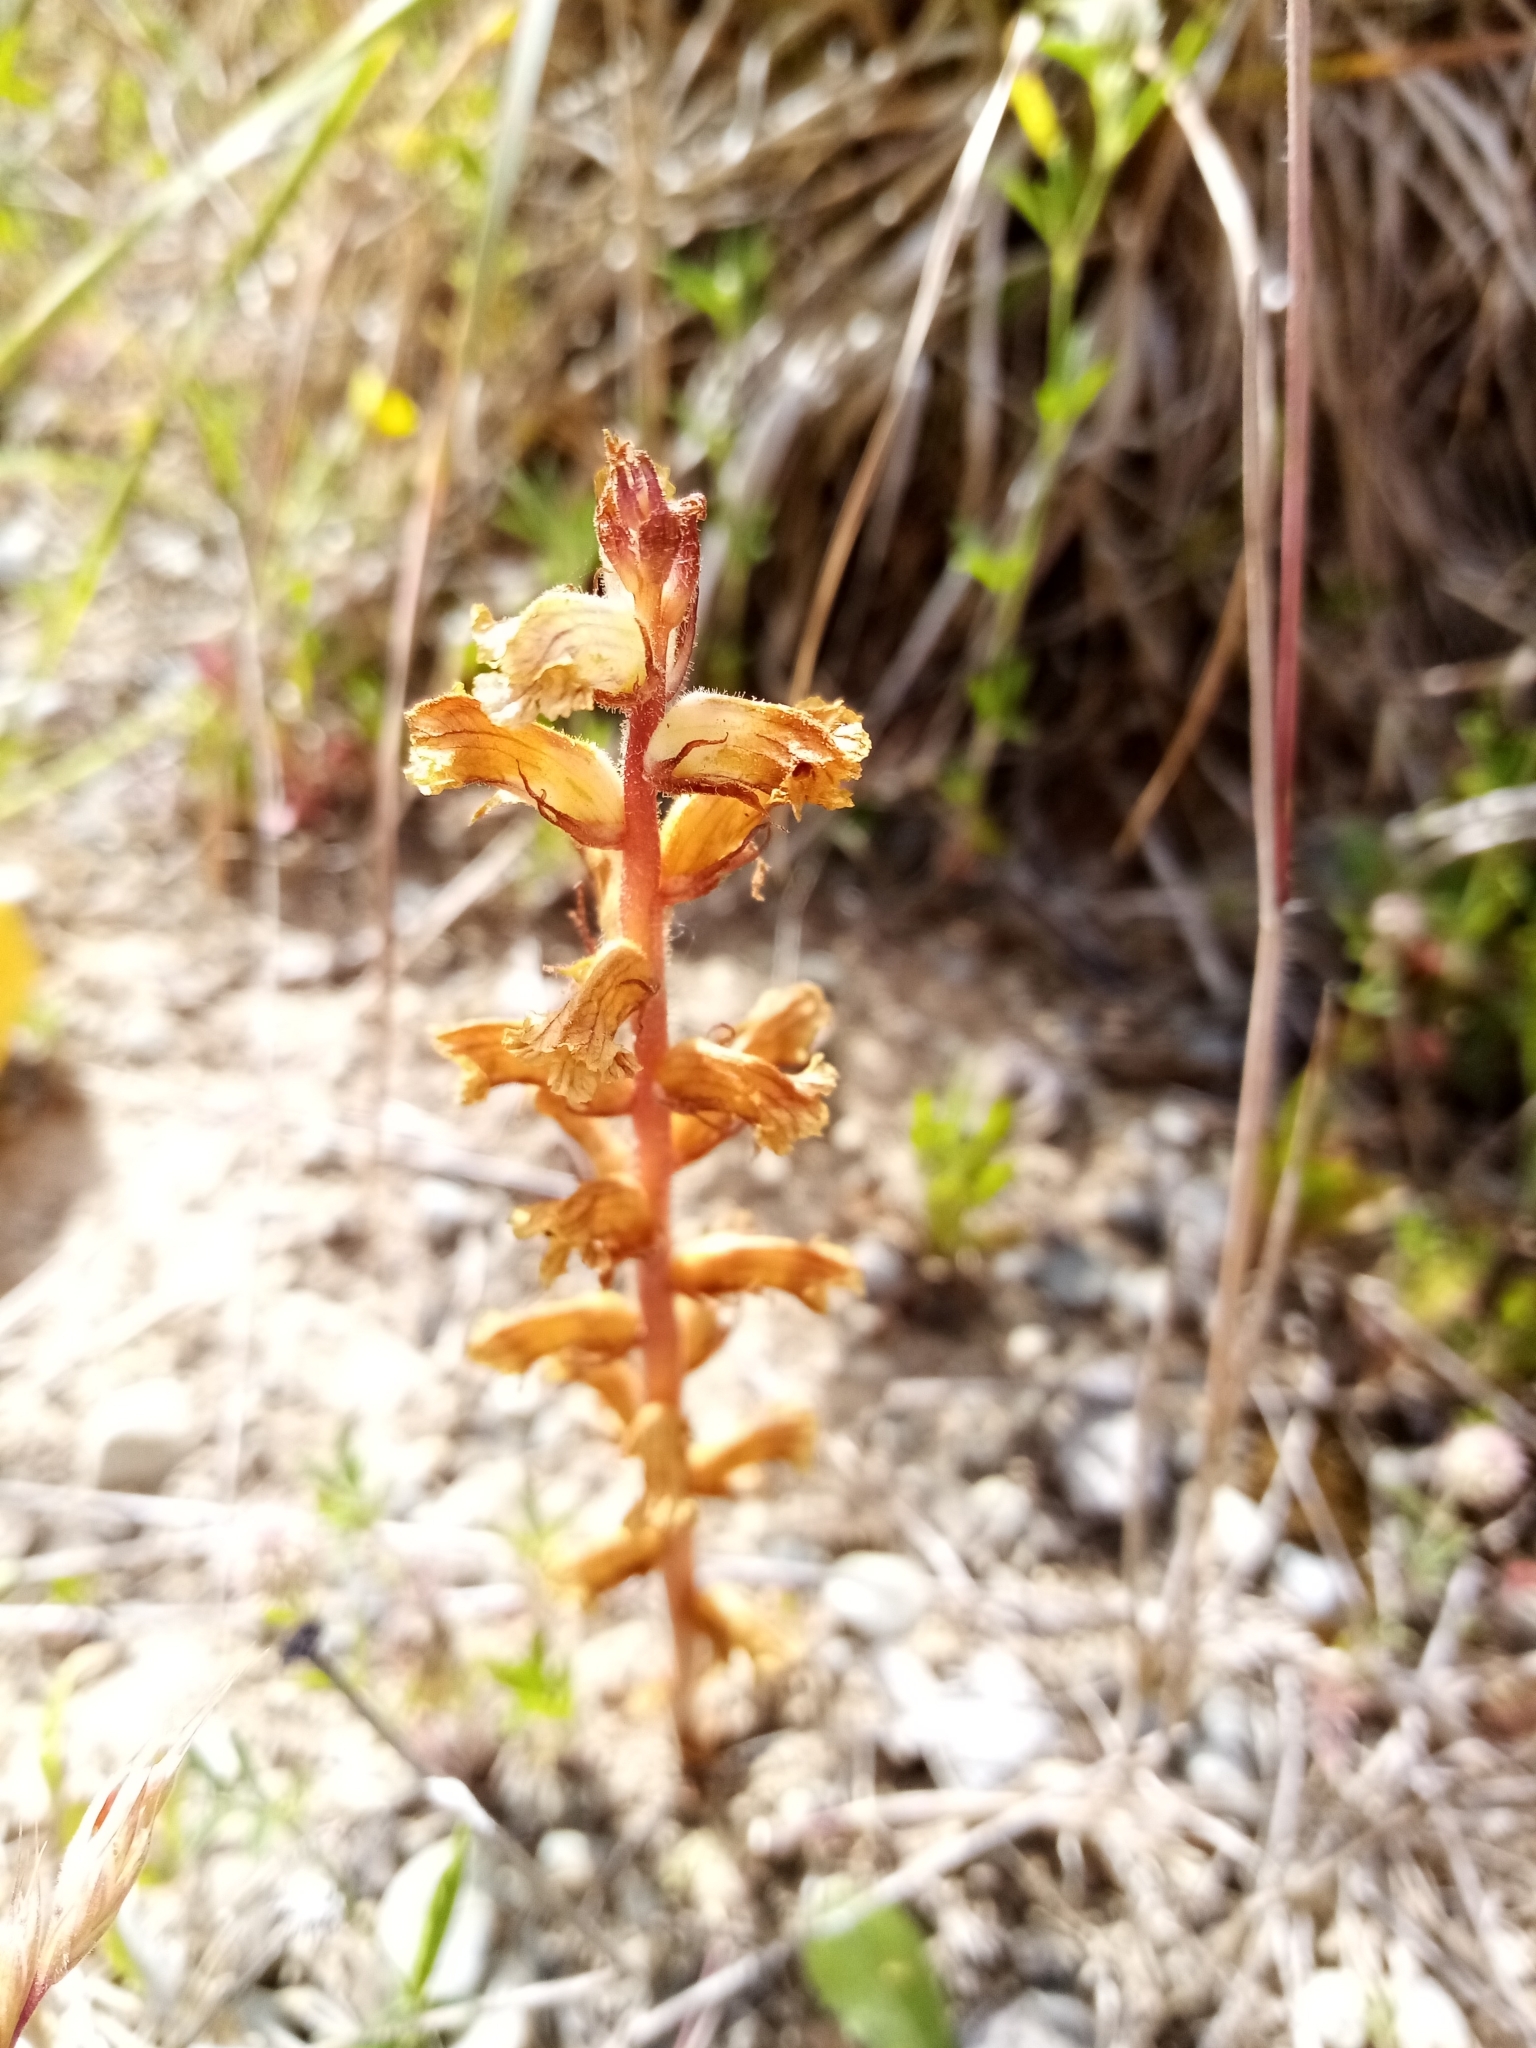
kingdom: Plantae
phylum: Tracheophyta
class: Magnoliopsida
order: Lamiales
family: Orobanchaceae
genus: Orobanche
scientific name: Orobanche minor
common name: Common broomrape
